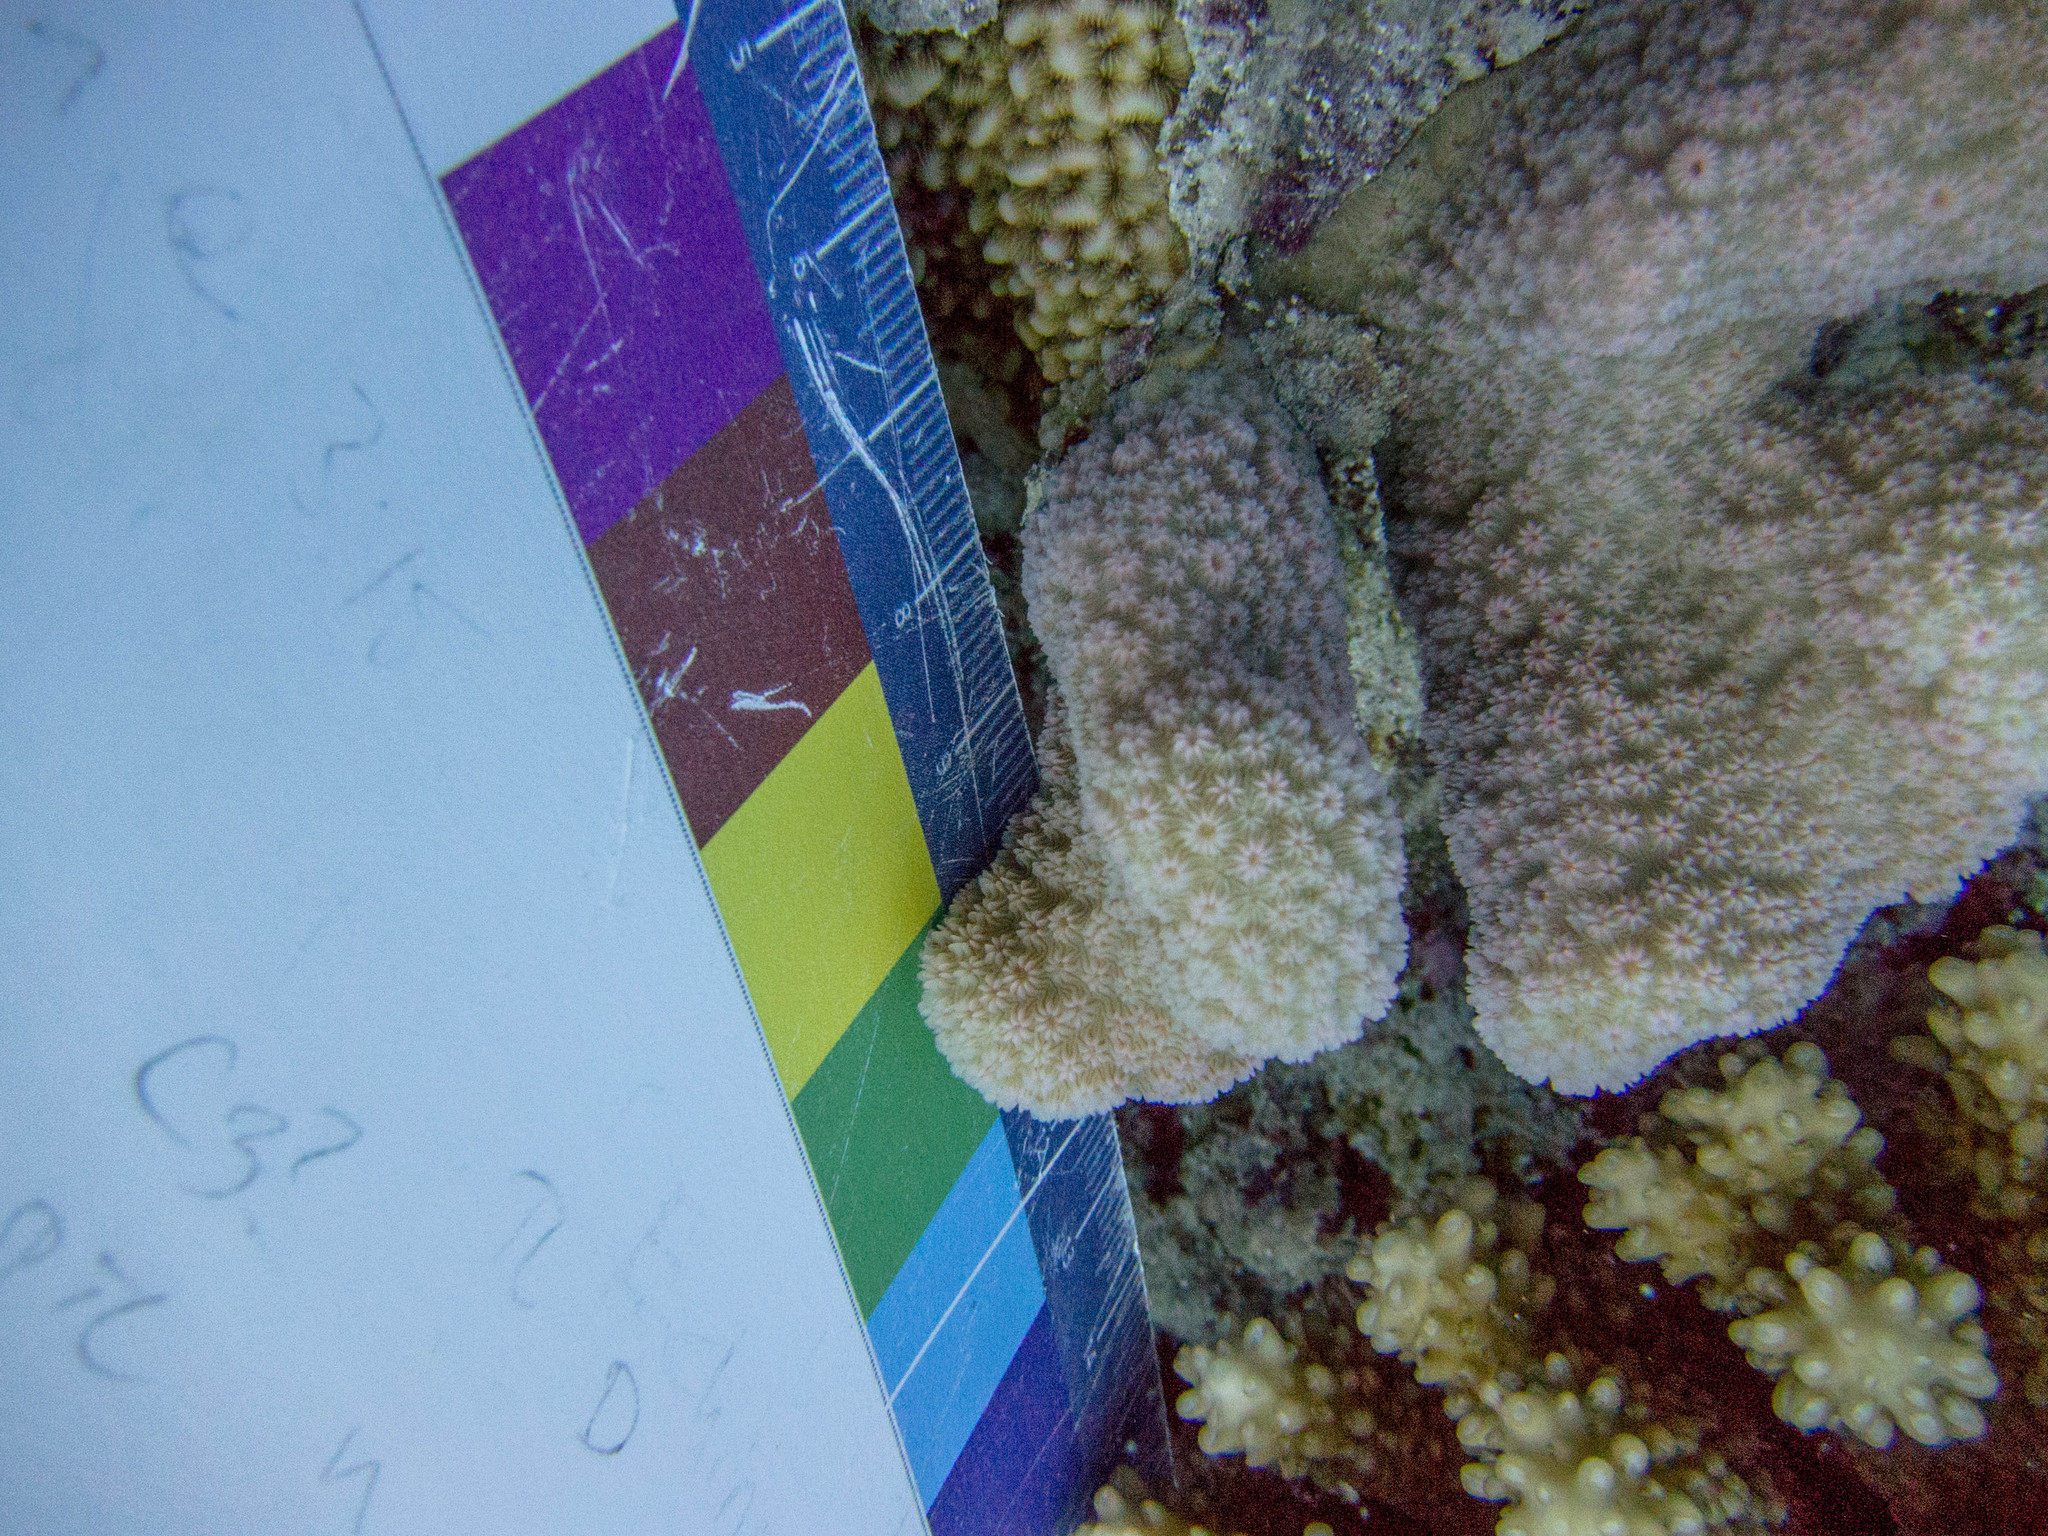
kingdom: Animalia
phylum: Cnidaria
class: Anthozoa
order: Scleractinia
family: Agariciidae
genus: Pavona
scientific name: Pavona maldivensis
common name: Leaf coral
